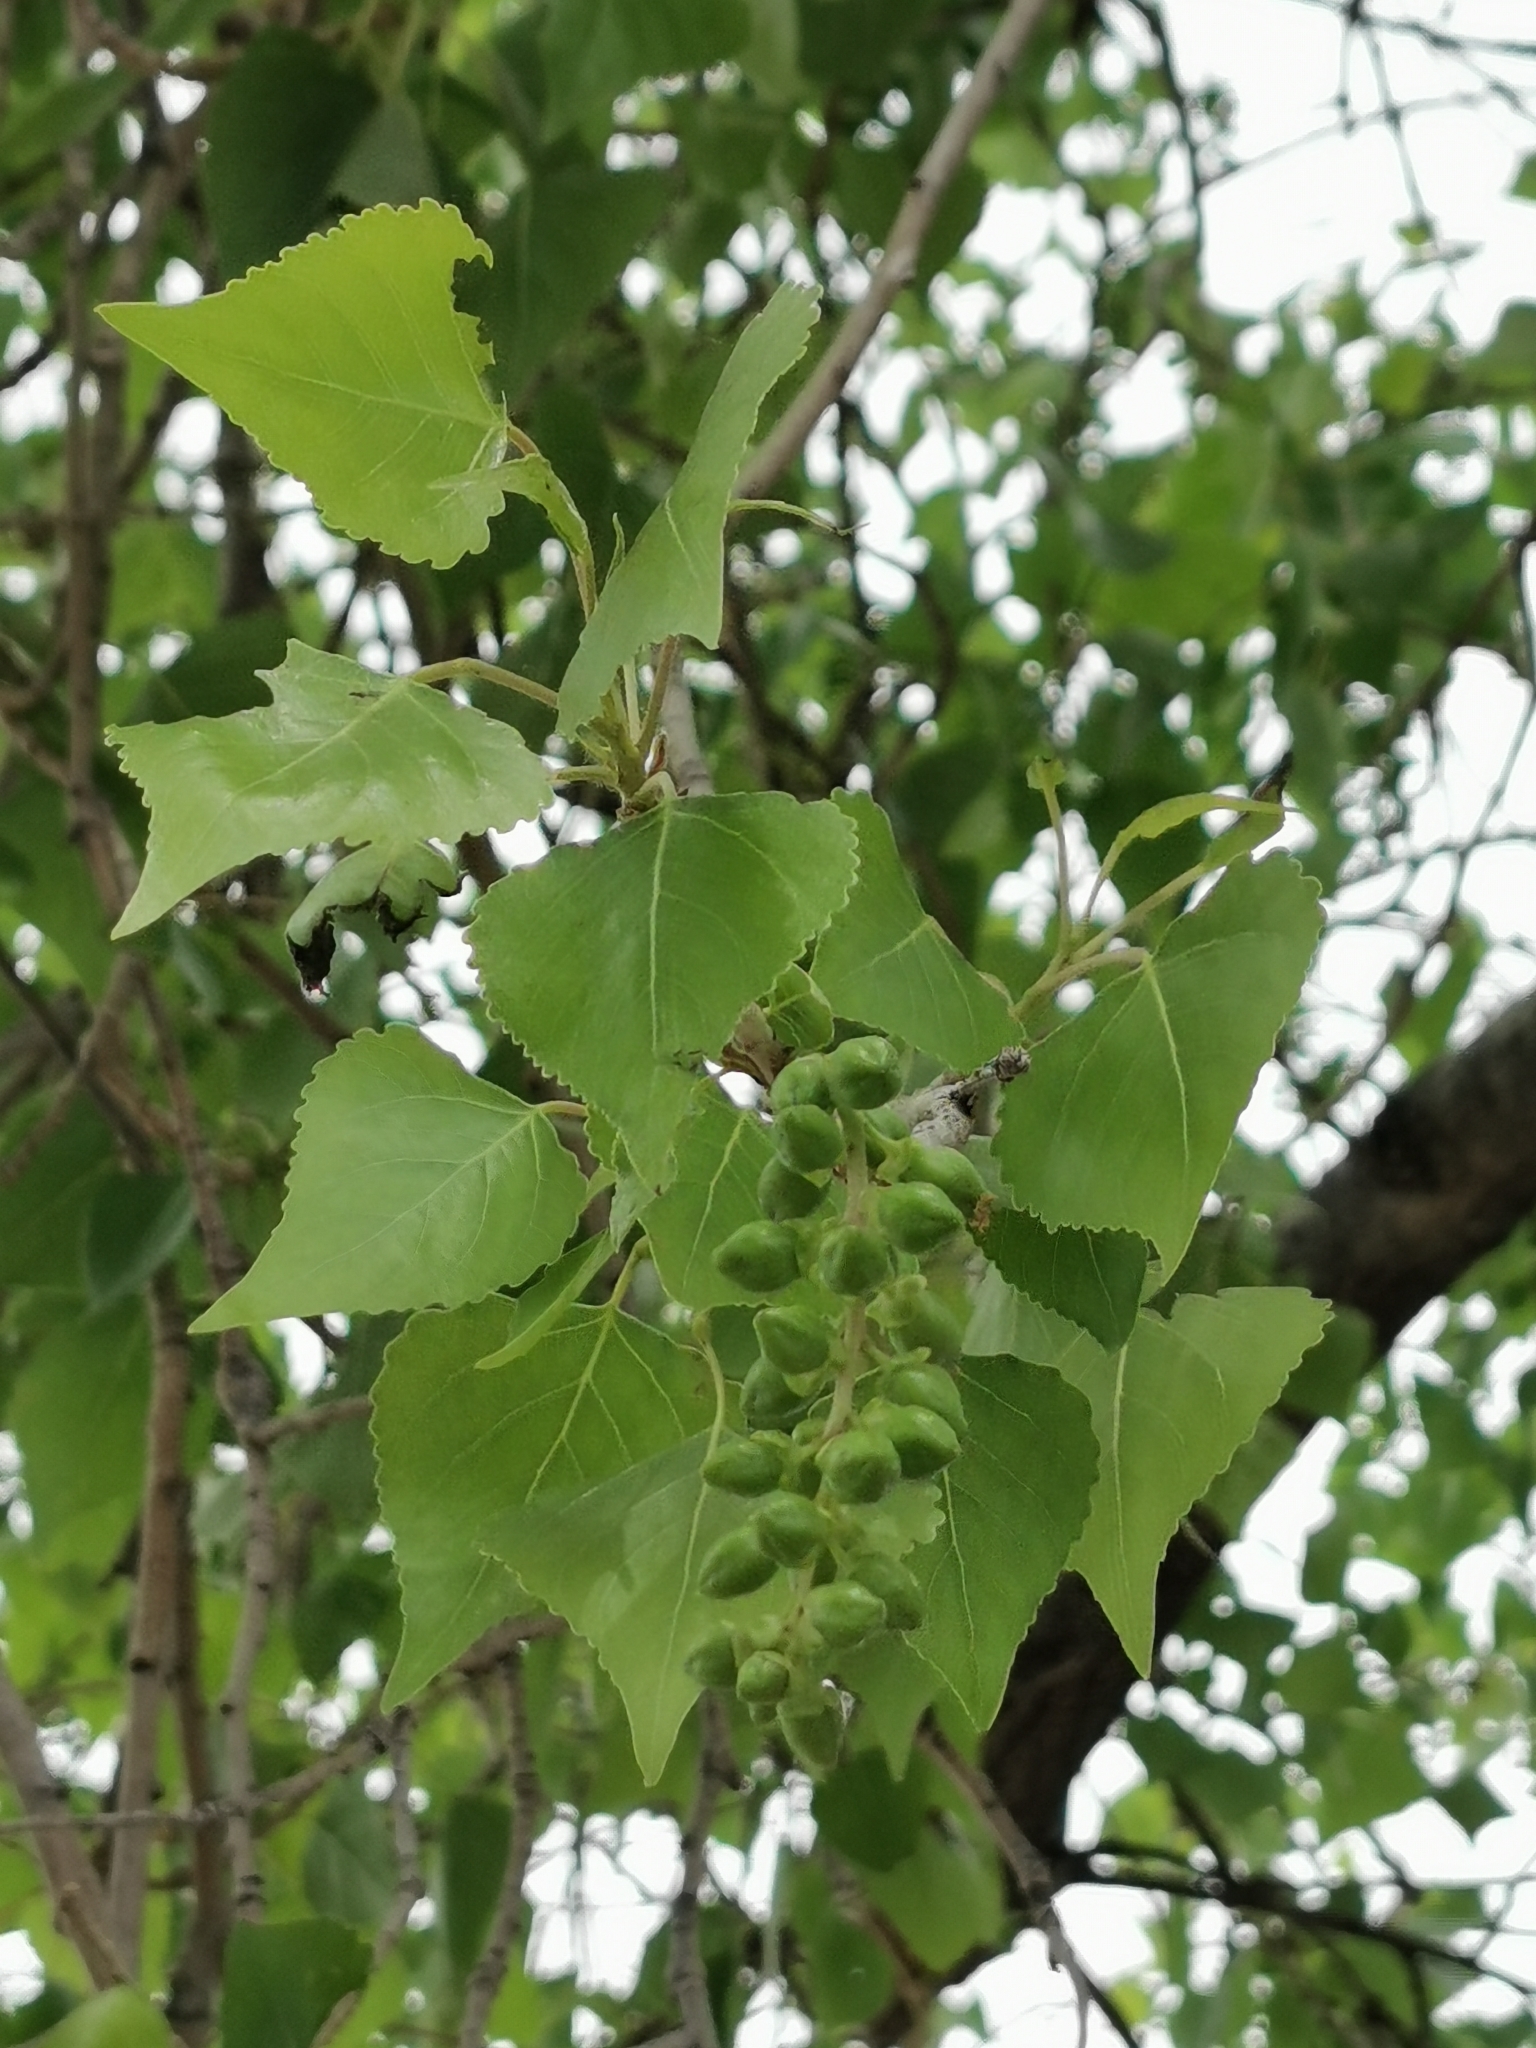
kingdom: Plantae
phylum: Tracheophyta
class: Magnoliopsida
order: Malpighiales
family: Salicaceae
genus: Populus
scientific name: Populus fremontii
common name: Fremont's cottonwood
